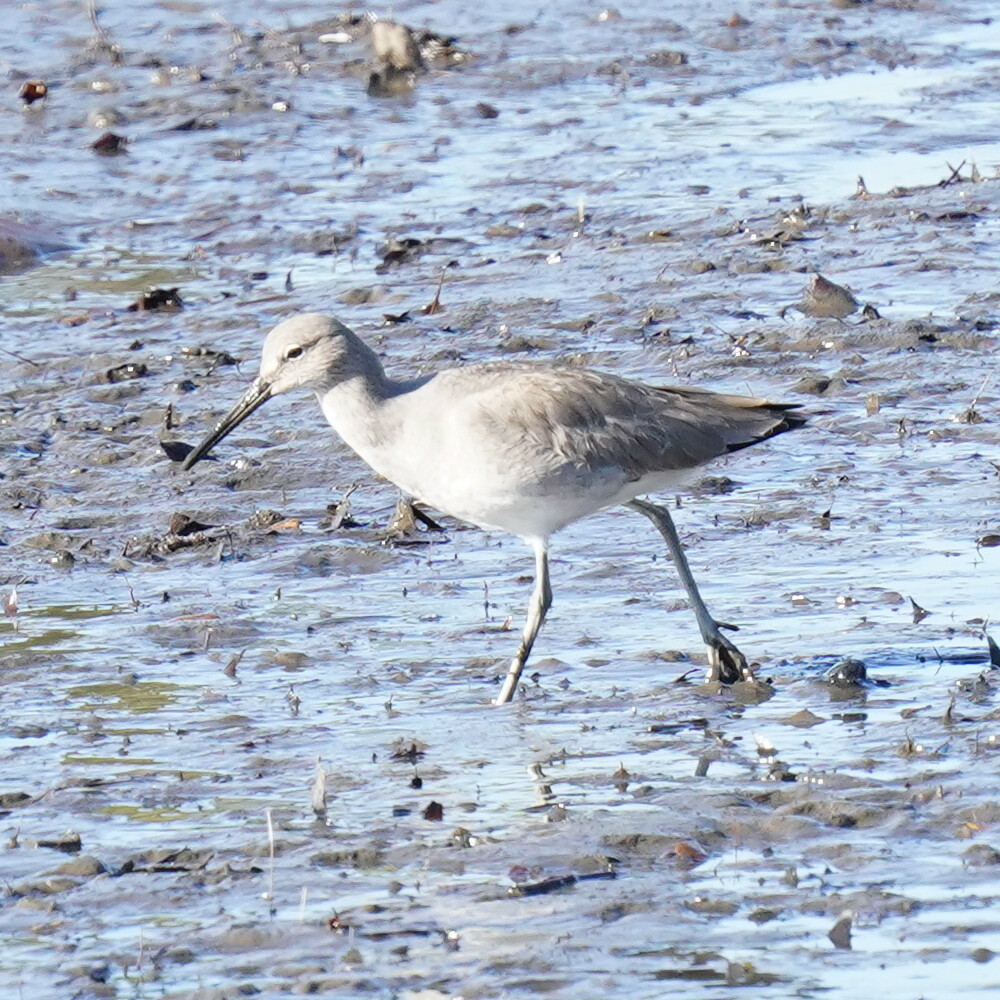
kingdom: Animalia
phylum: Chordata
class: Aves
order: Charadriiformes
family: Scolopacidae
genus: Tringa
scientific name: Tringa semipalmata
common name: Willet
